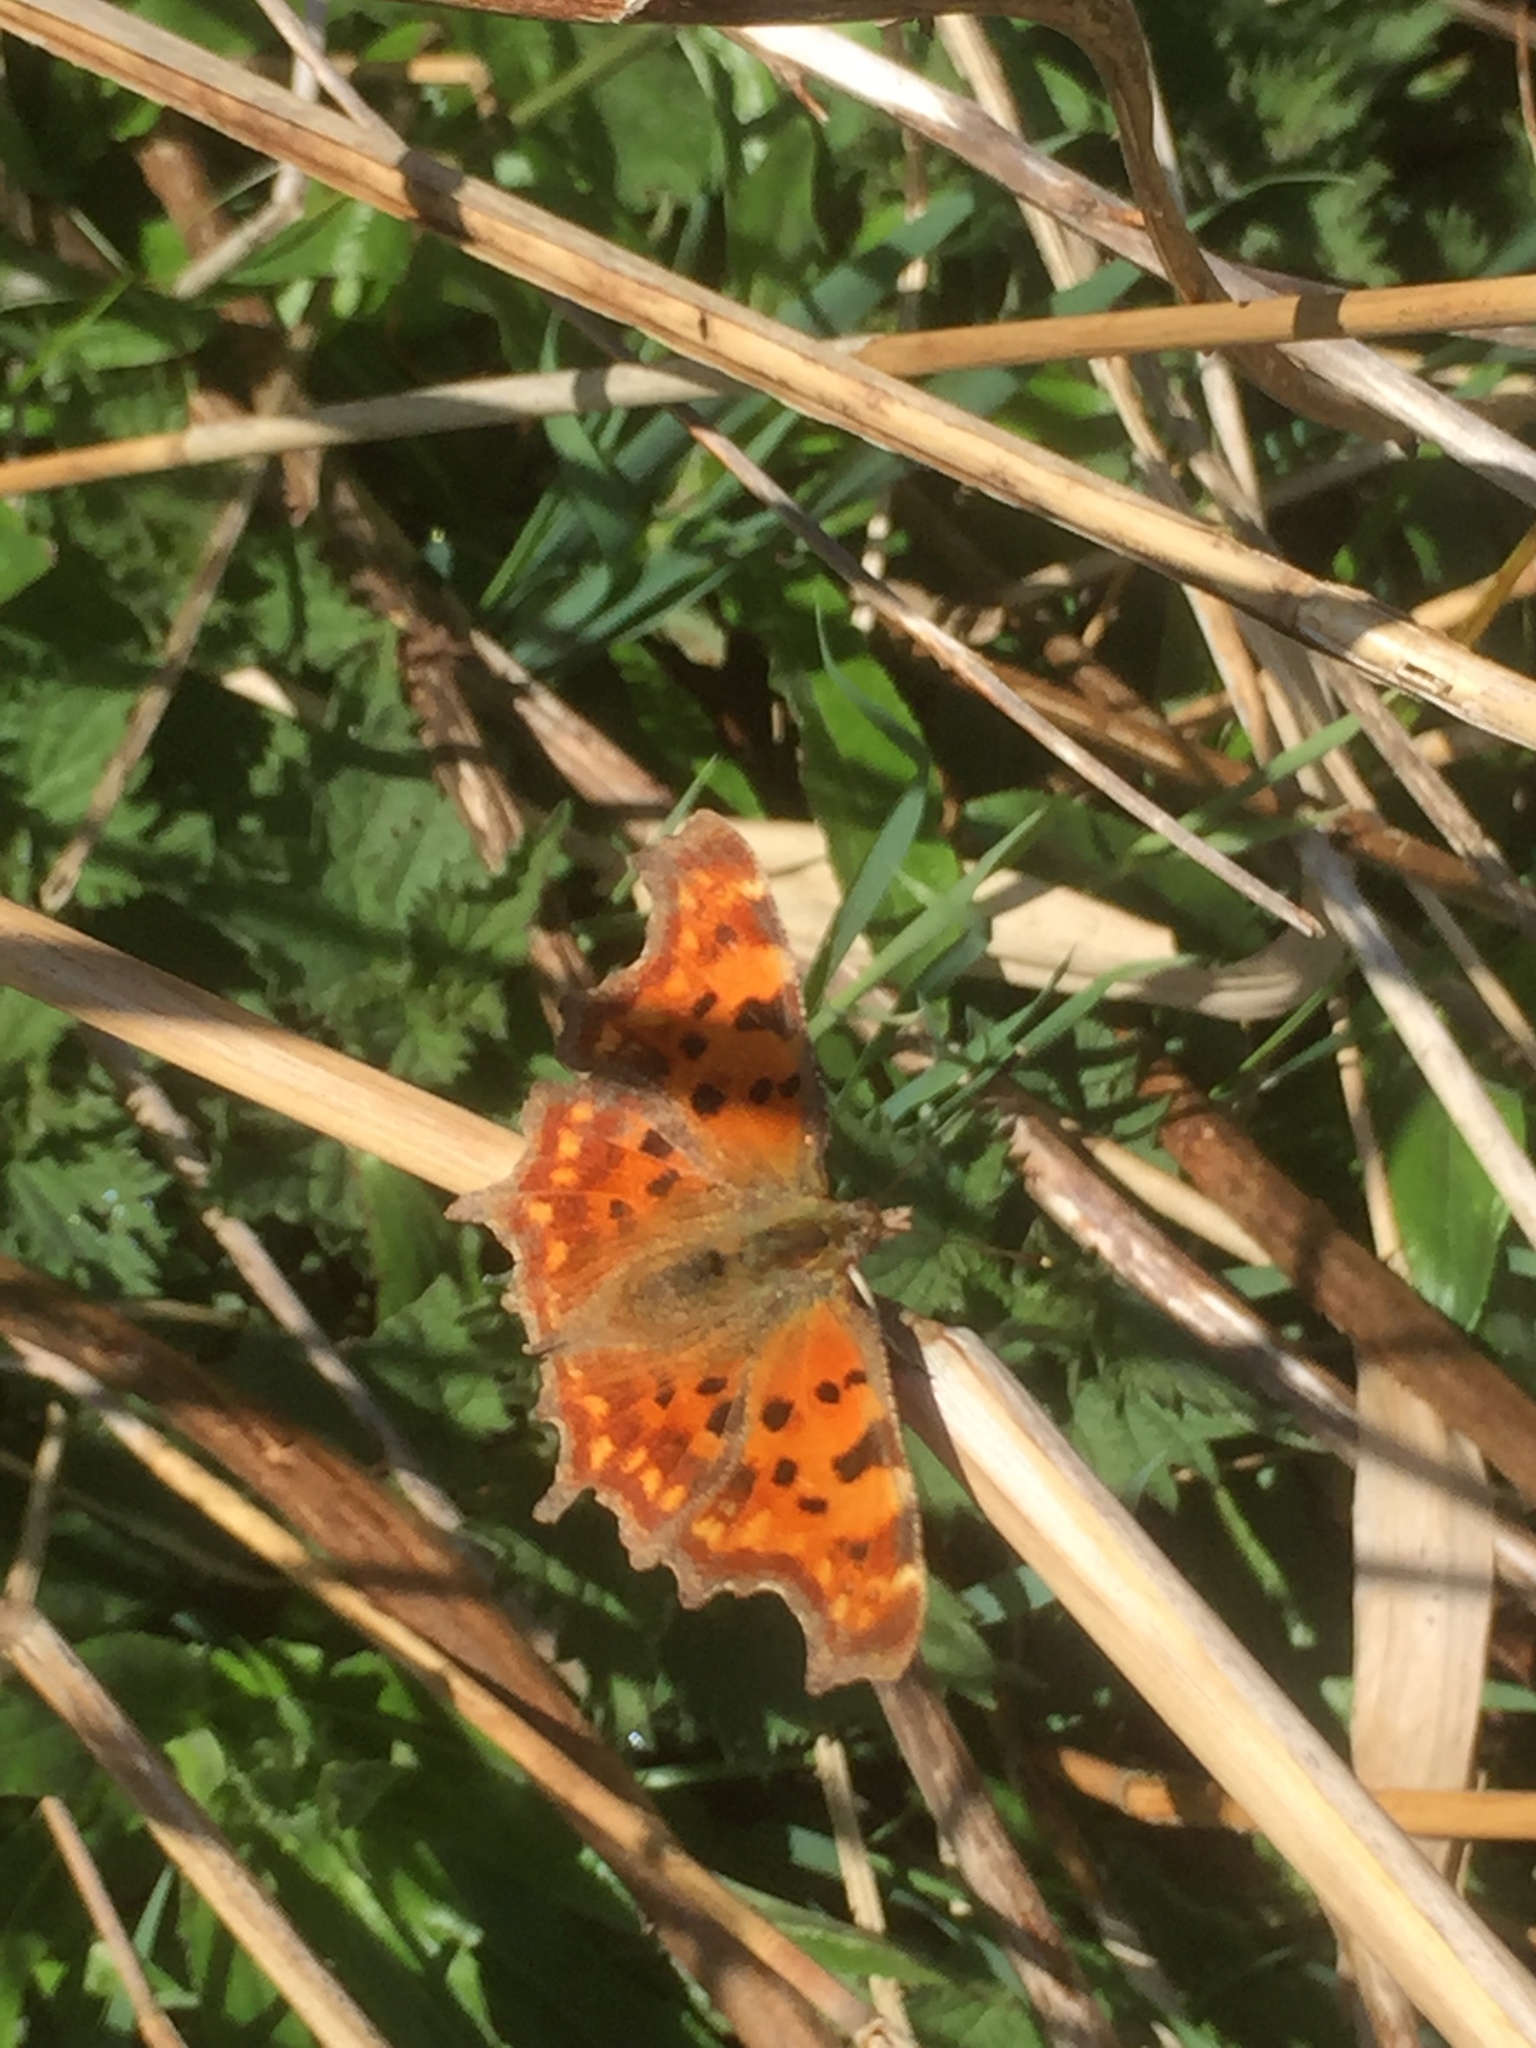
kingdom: Animalia
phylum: Arthropoda
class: Insecta
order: Lepidoptera
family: Nymphalidae
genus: Polygonia
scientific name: Polygonia c-album
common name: Comma
